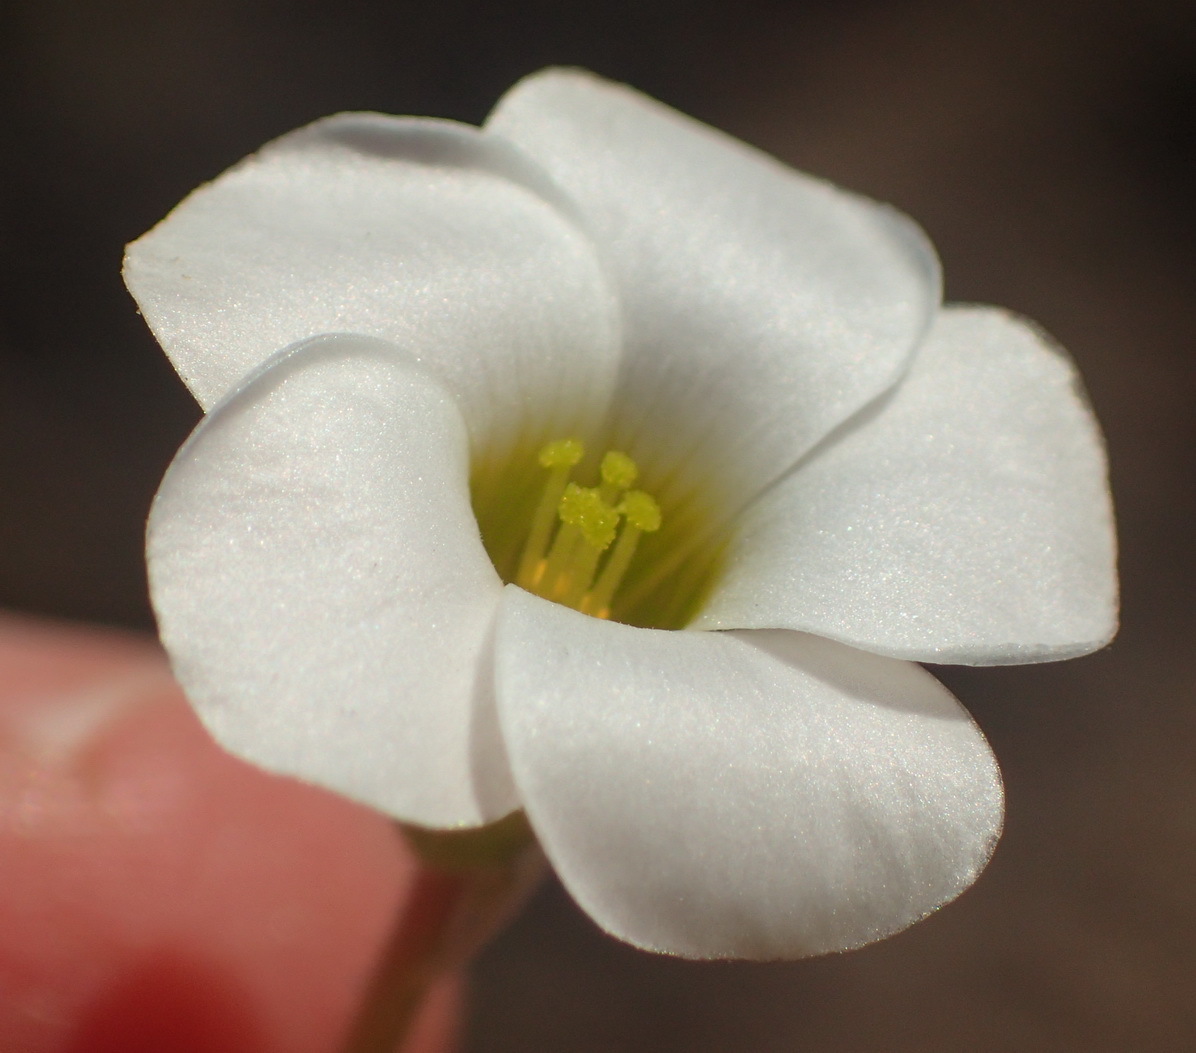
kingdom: Plantae
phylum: Tracheophyta
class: Magnoliopsida
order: Oxalidales
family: Oxalidaceae
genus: Oxalis
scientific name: Oxalis punctata
